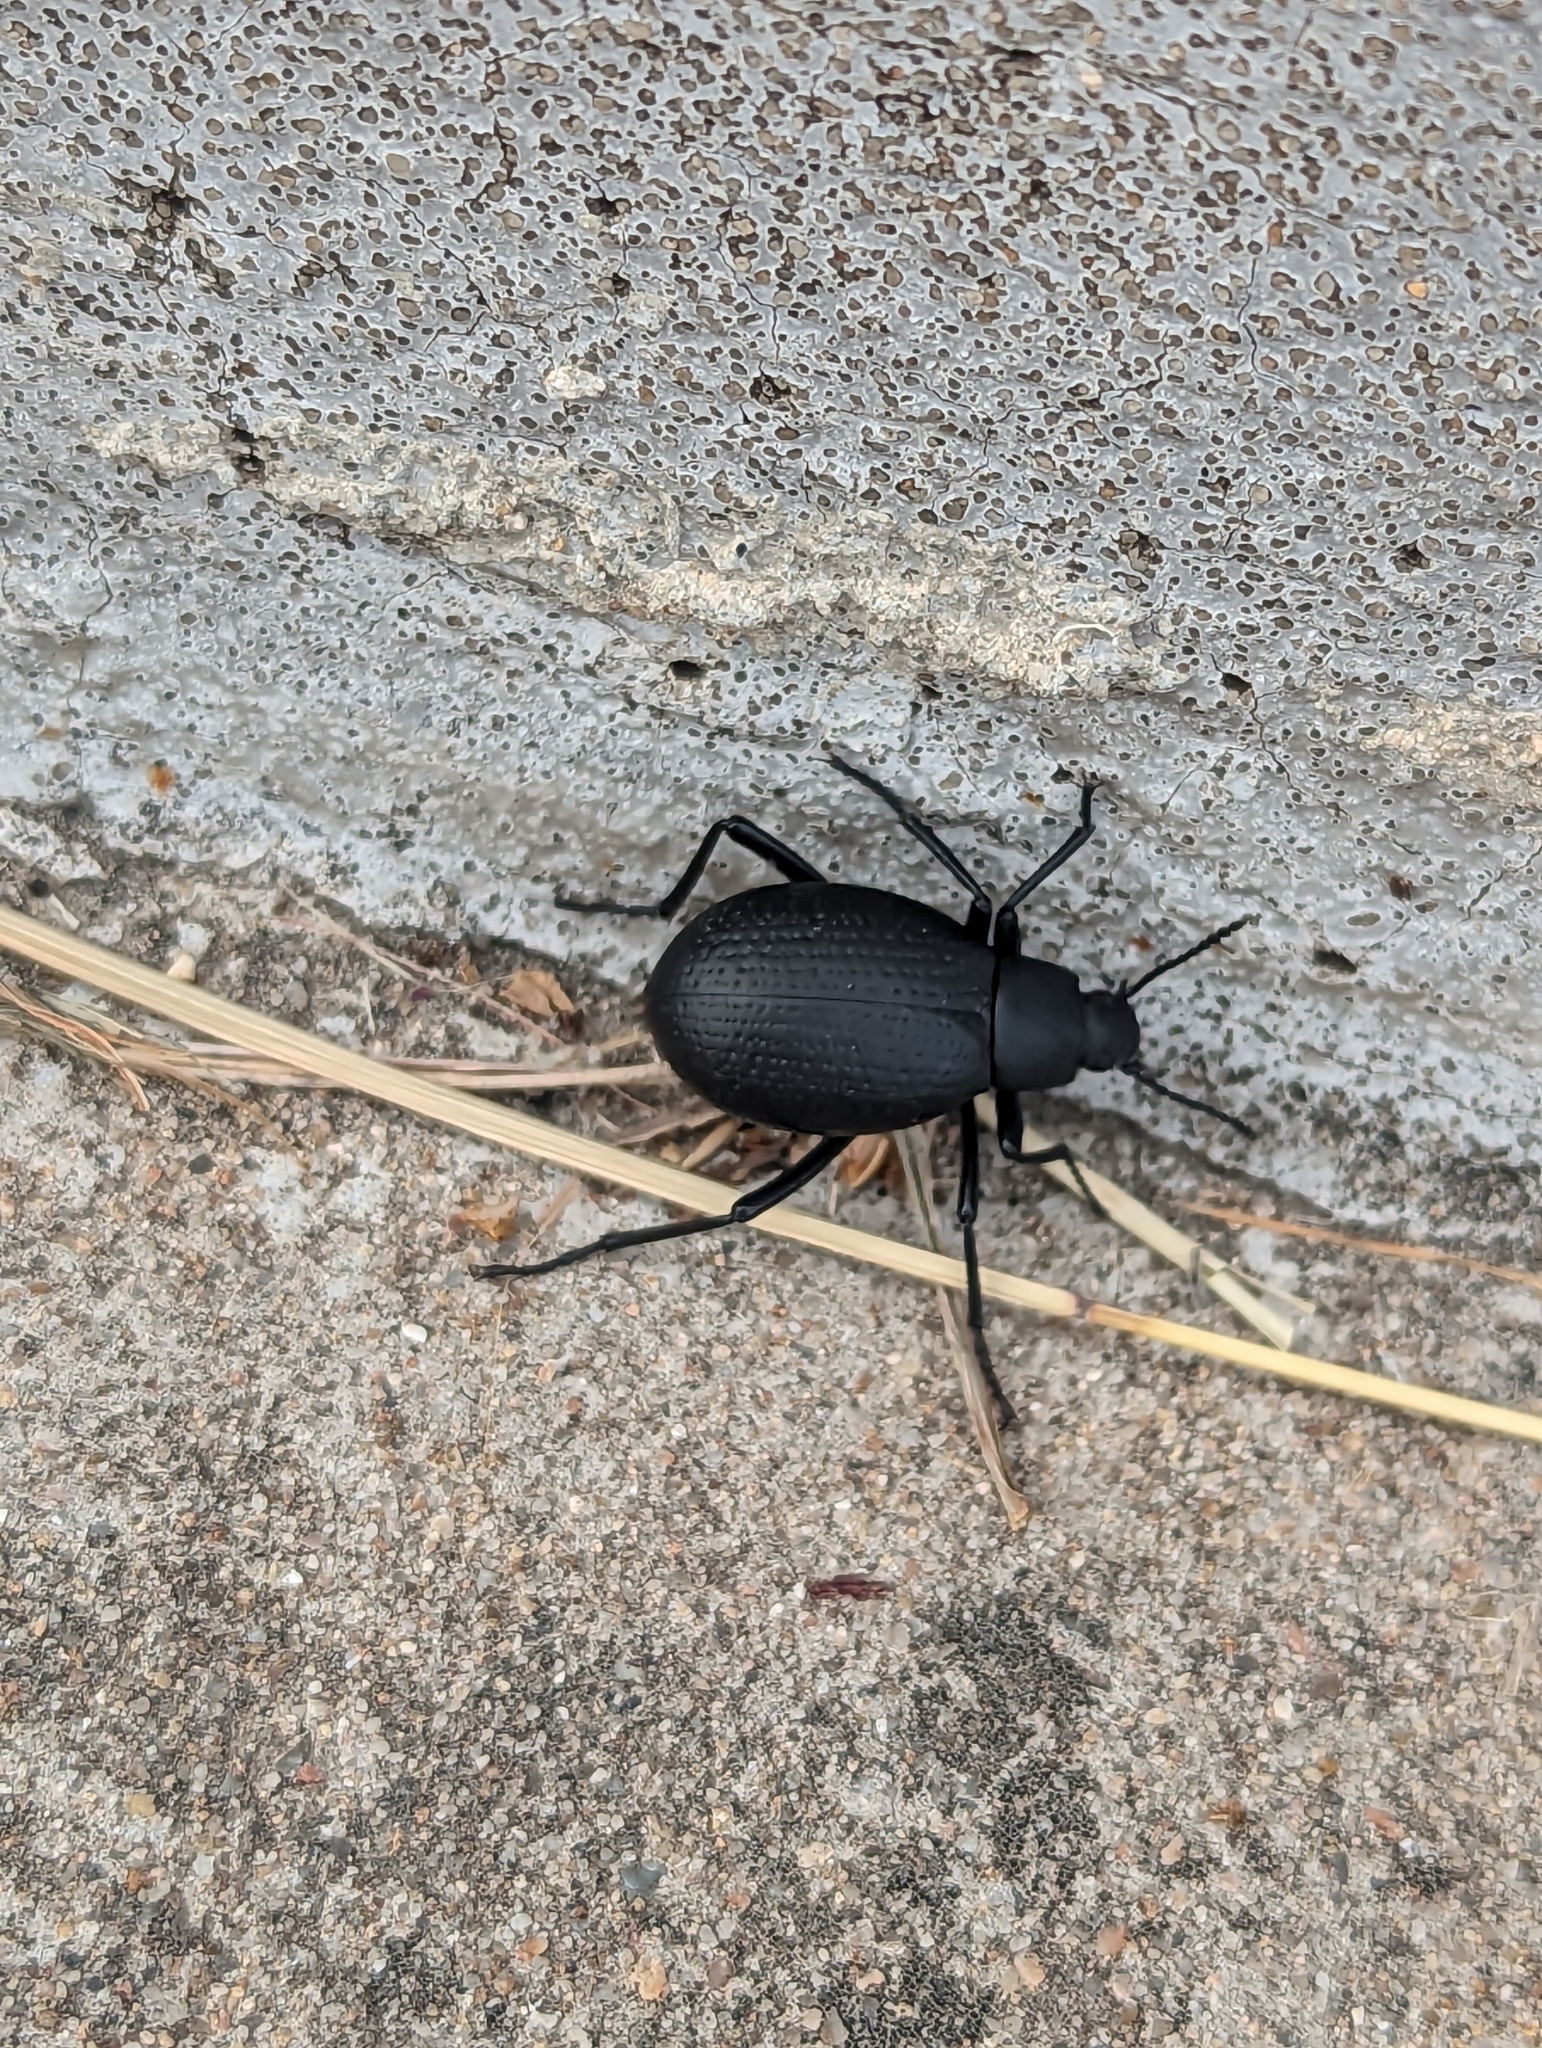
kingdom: Animalia
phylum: Arthropoda
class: Insecta
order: Coleoptera
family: Tenebrionidae
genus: Eleodes
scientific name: Eleodes goryi
